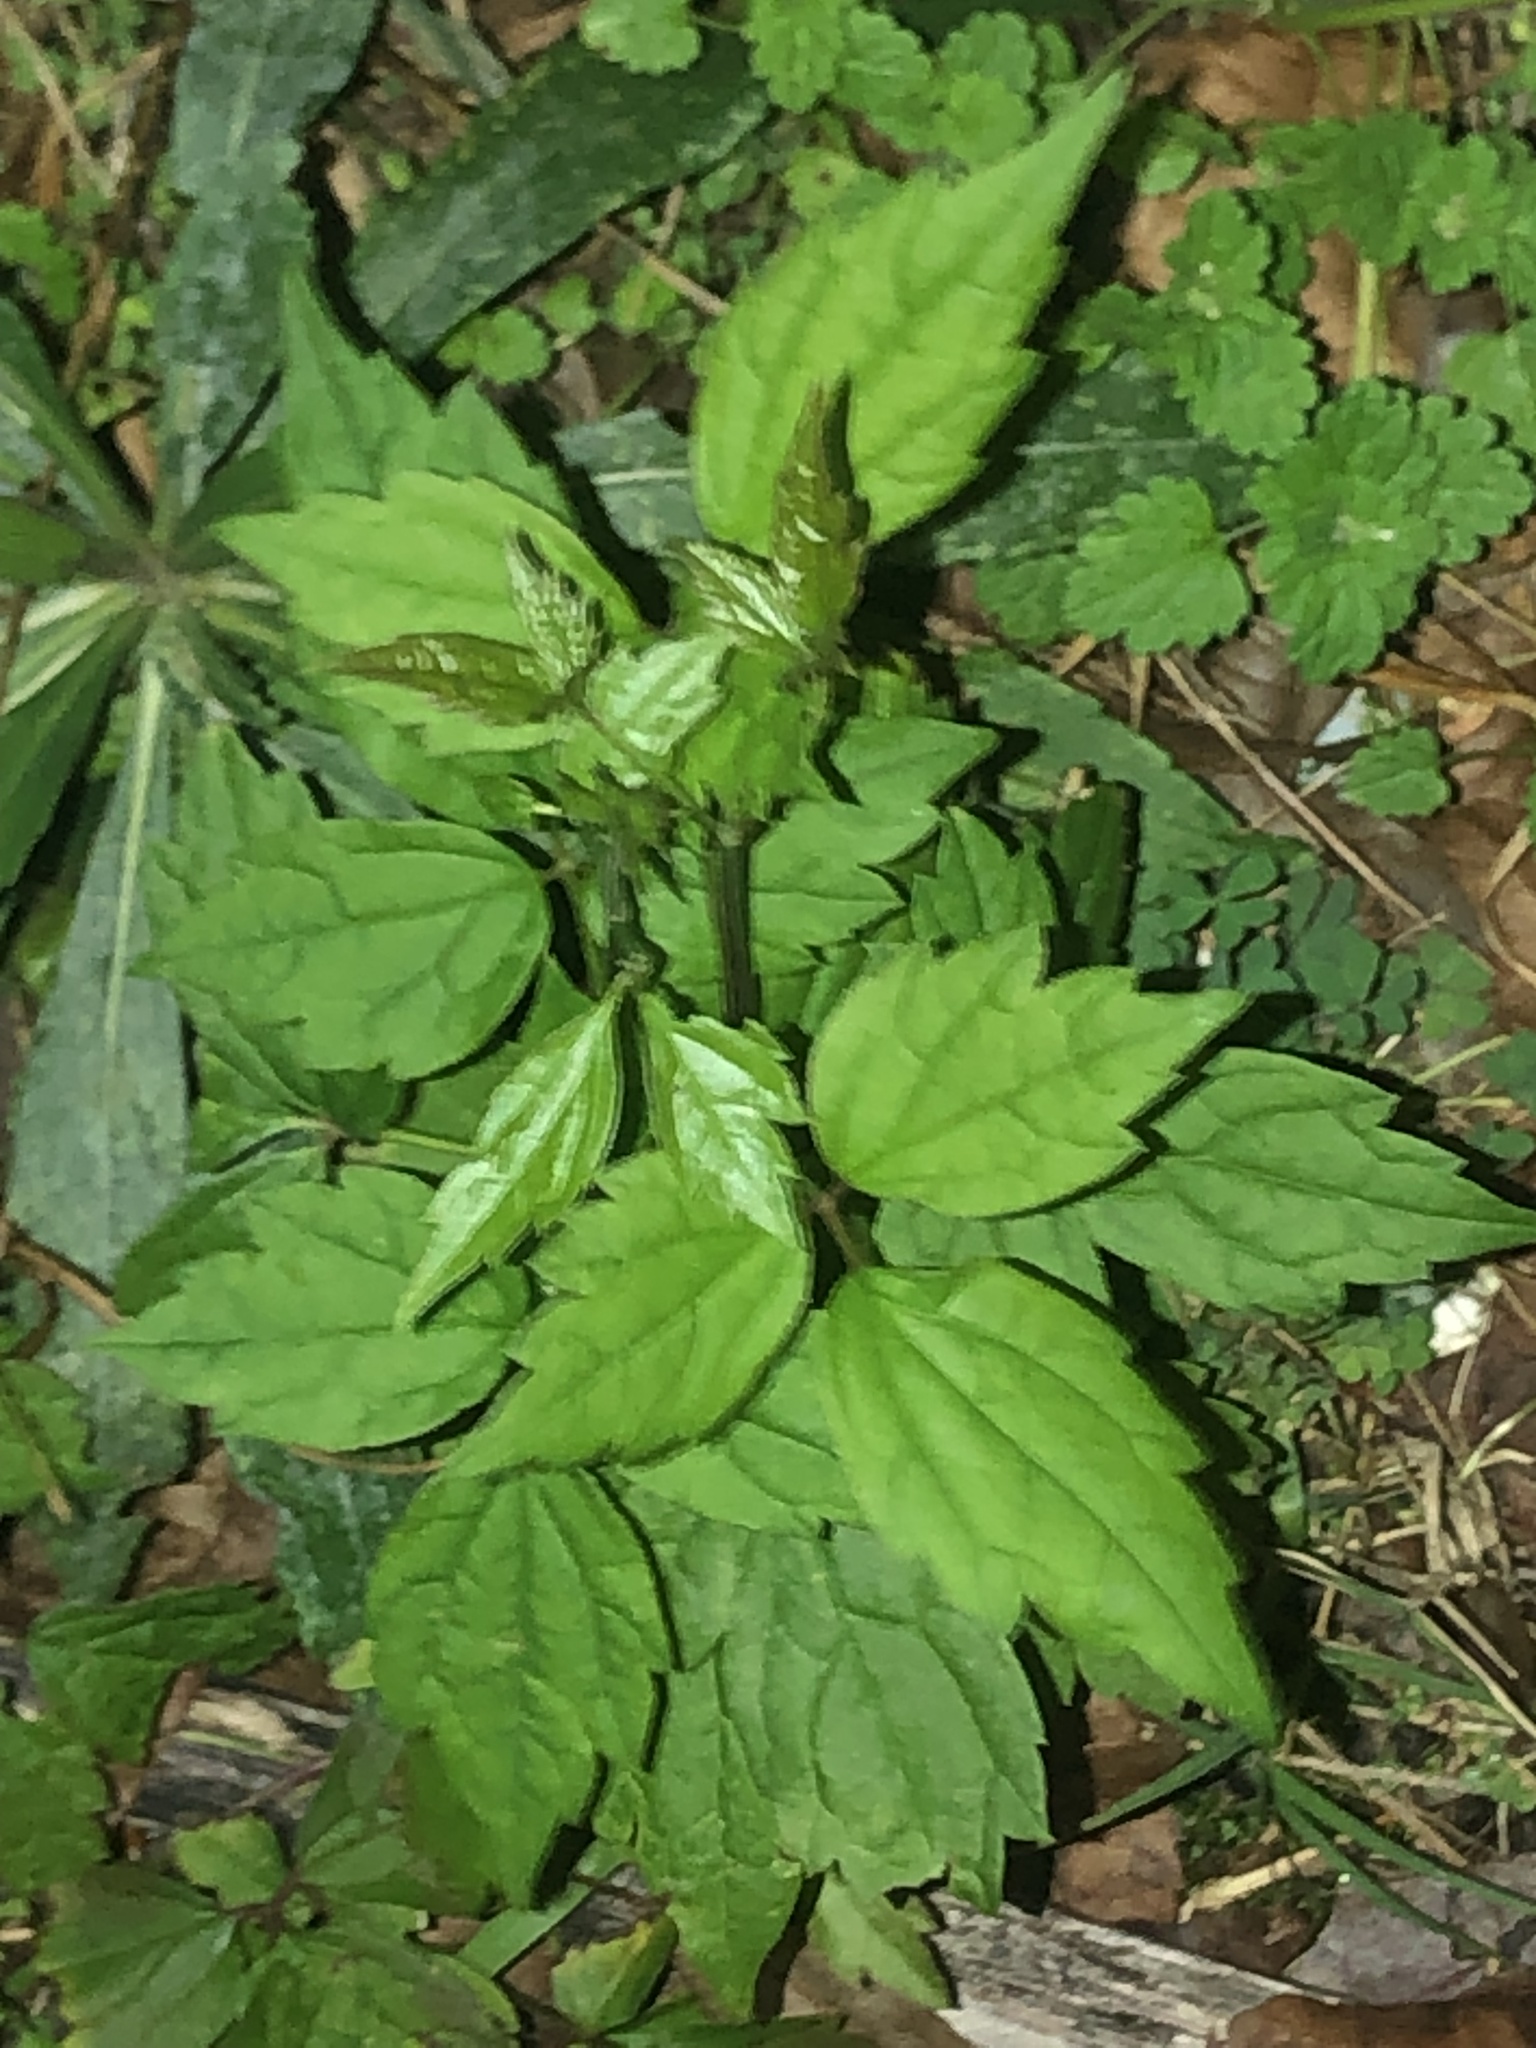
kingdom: Plantae
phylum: Tracheophyta
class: Magnoliopsida
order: Ranunculales
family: Ranunculaceae
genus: Clematis
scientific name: Clematis virginiana
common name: Virgin's-bower
